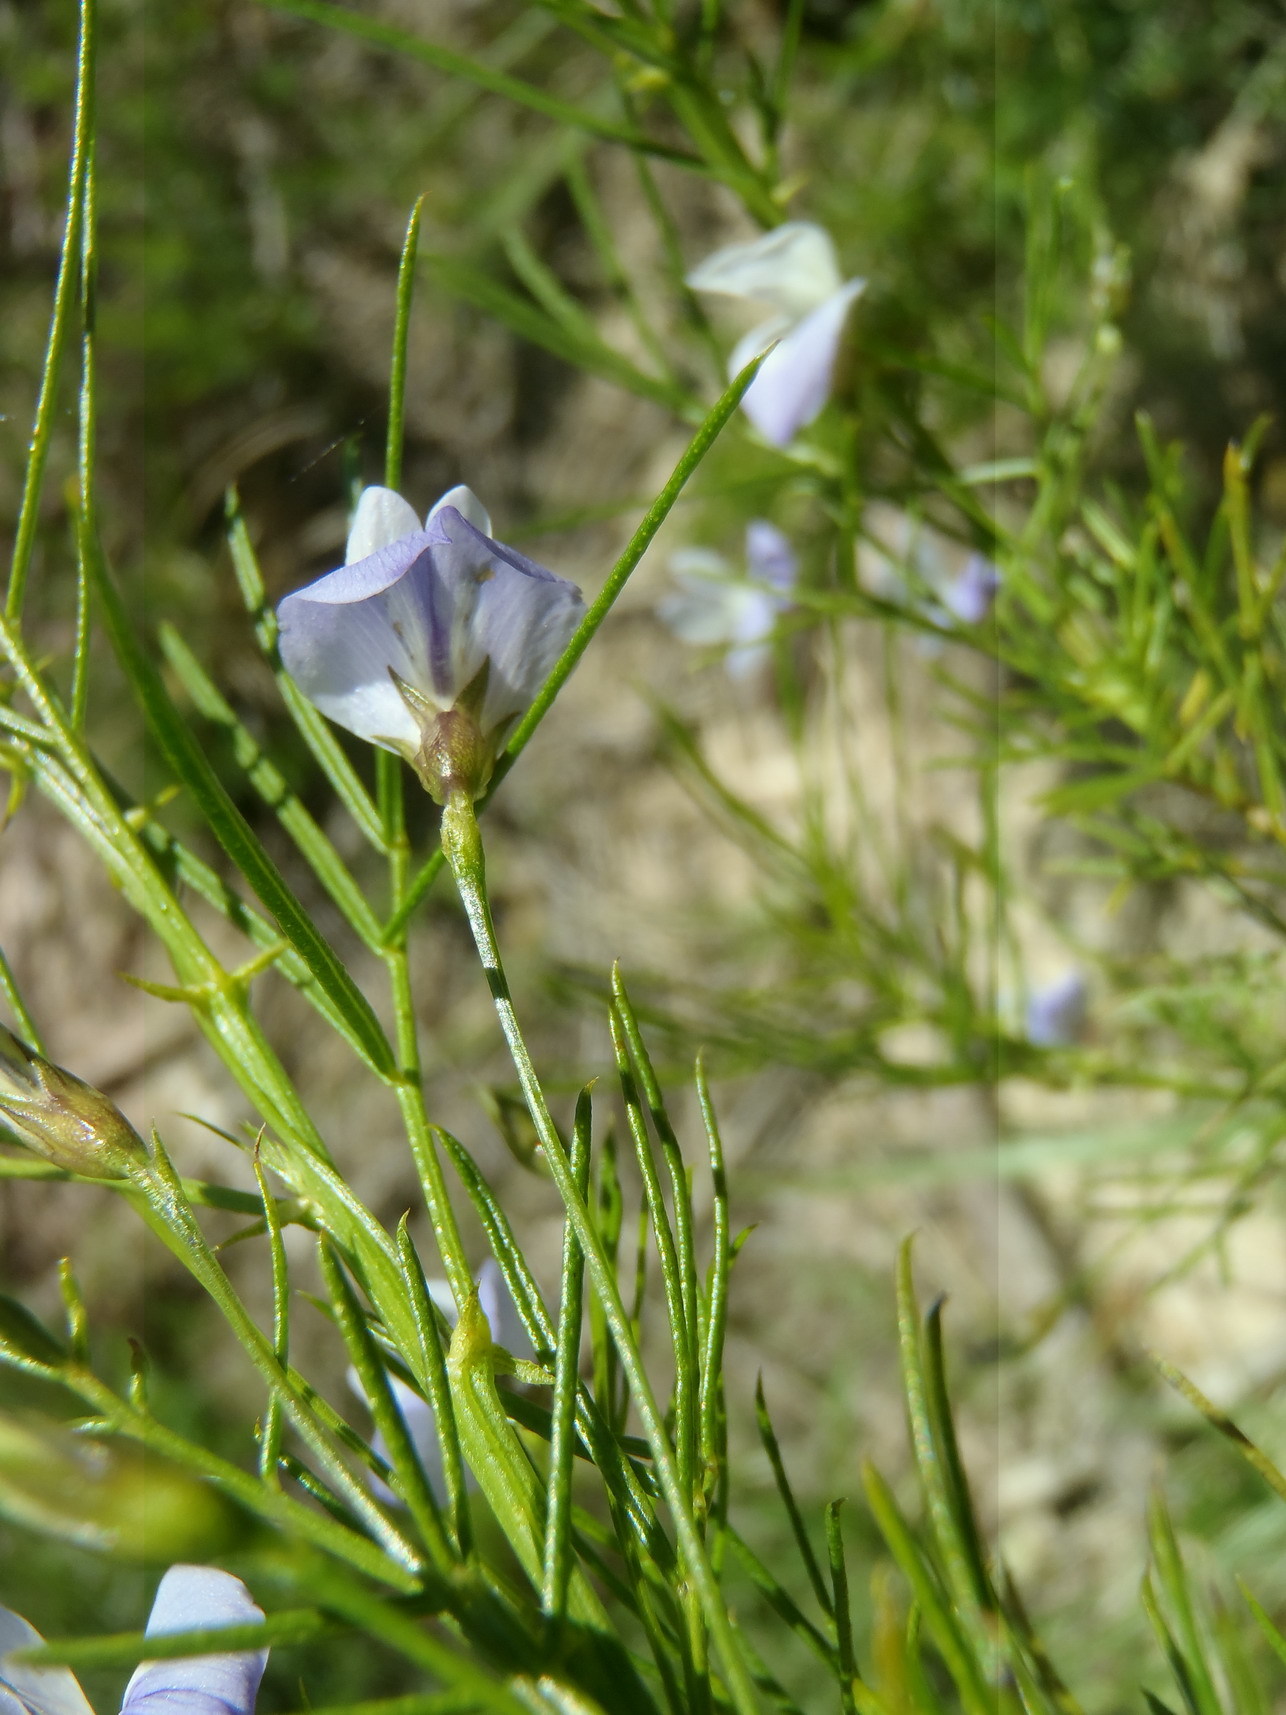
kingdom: Plantae
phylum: Tracheophyta
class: Magnoliopsida
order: Fabales
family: Fabaceae
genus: Psoralea
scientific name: Psoralea imminens
